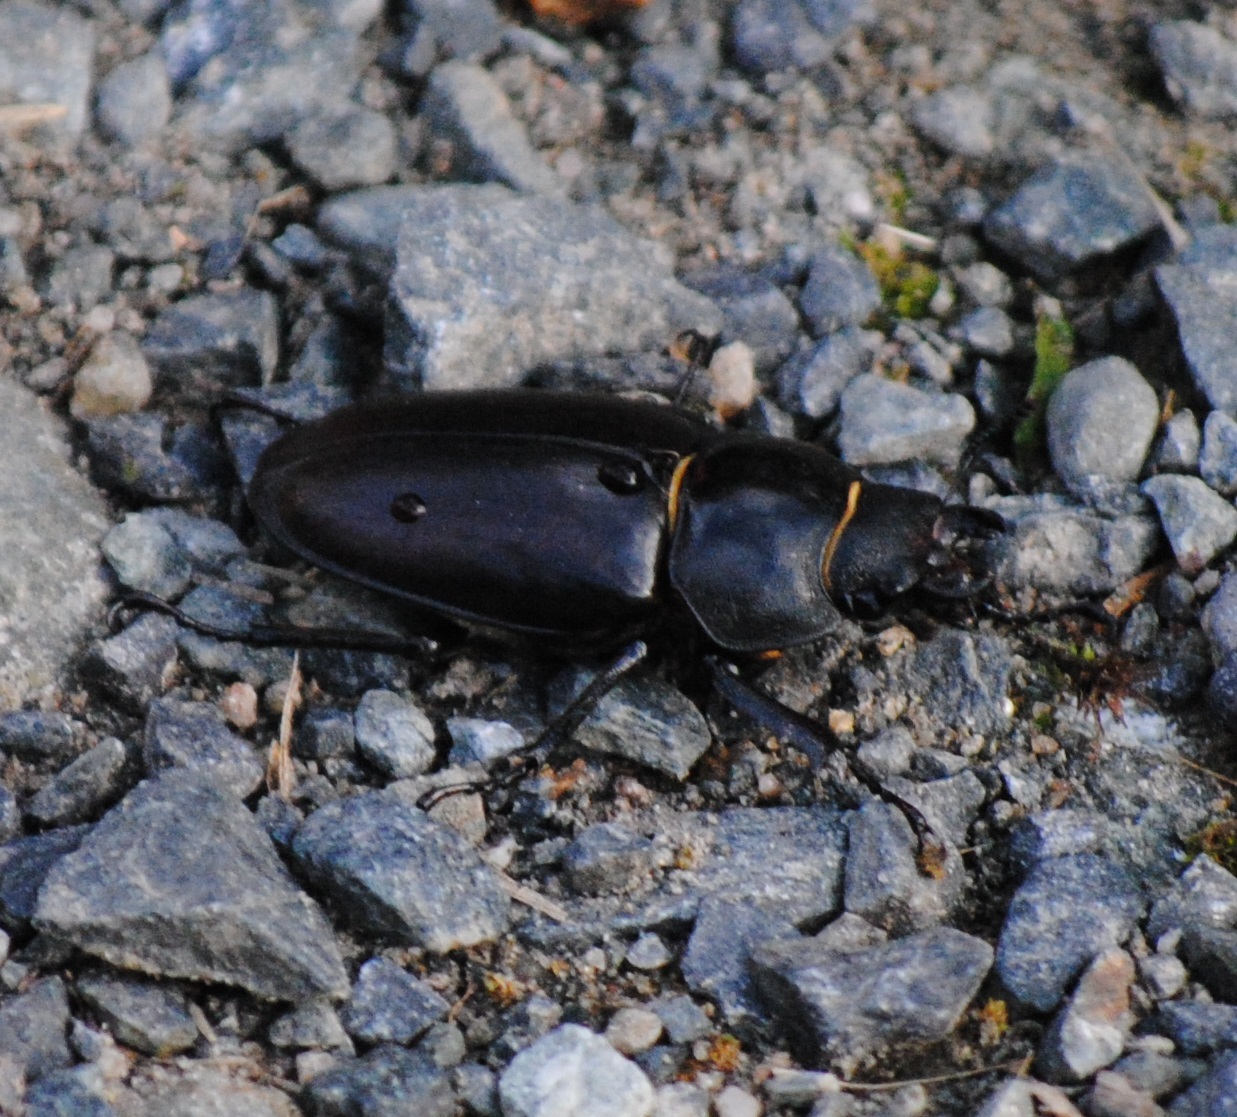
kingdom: Animalia
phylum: Arthropoda
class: Insecta
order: Coleoptera
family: Lucanidae
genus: Lucanus
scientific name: Lucanus cervus
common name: Stag beetle
